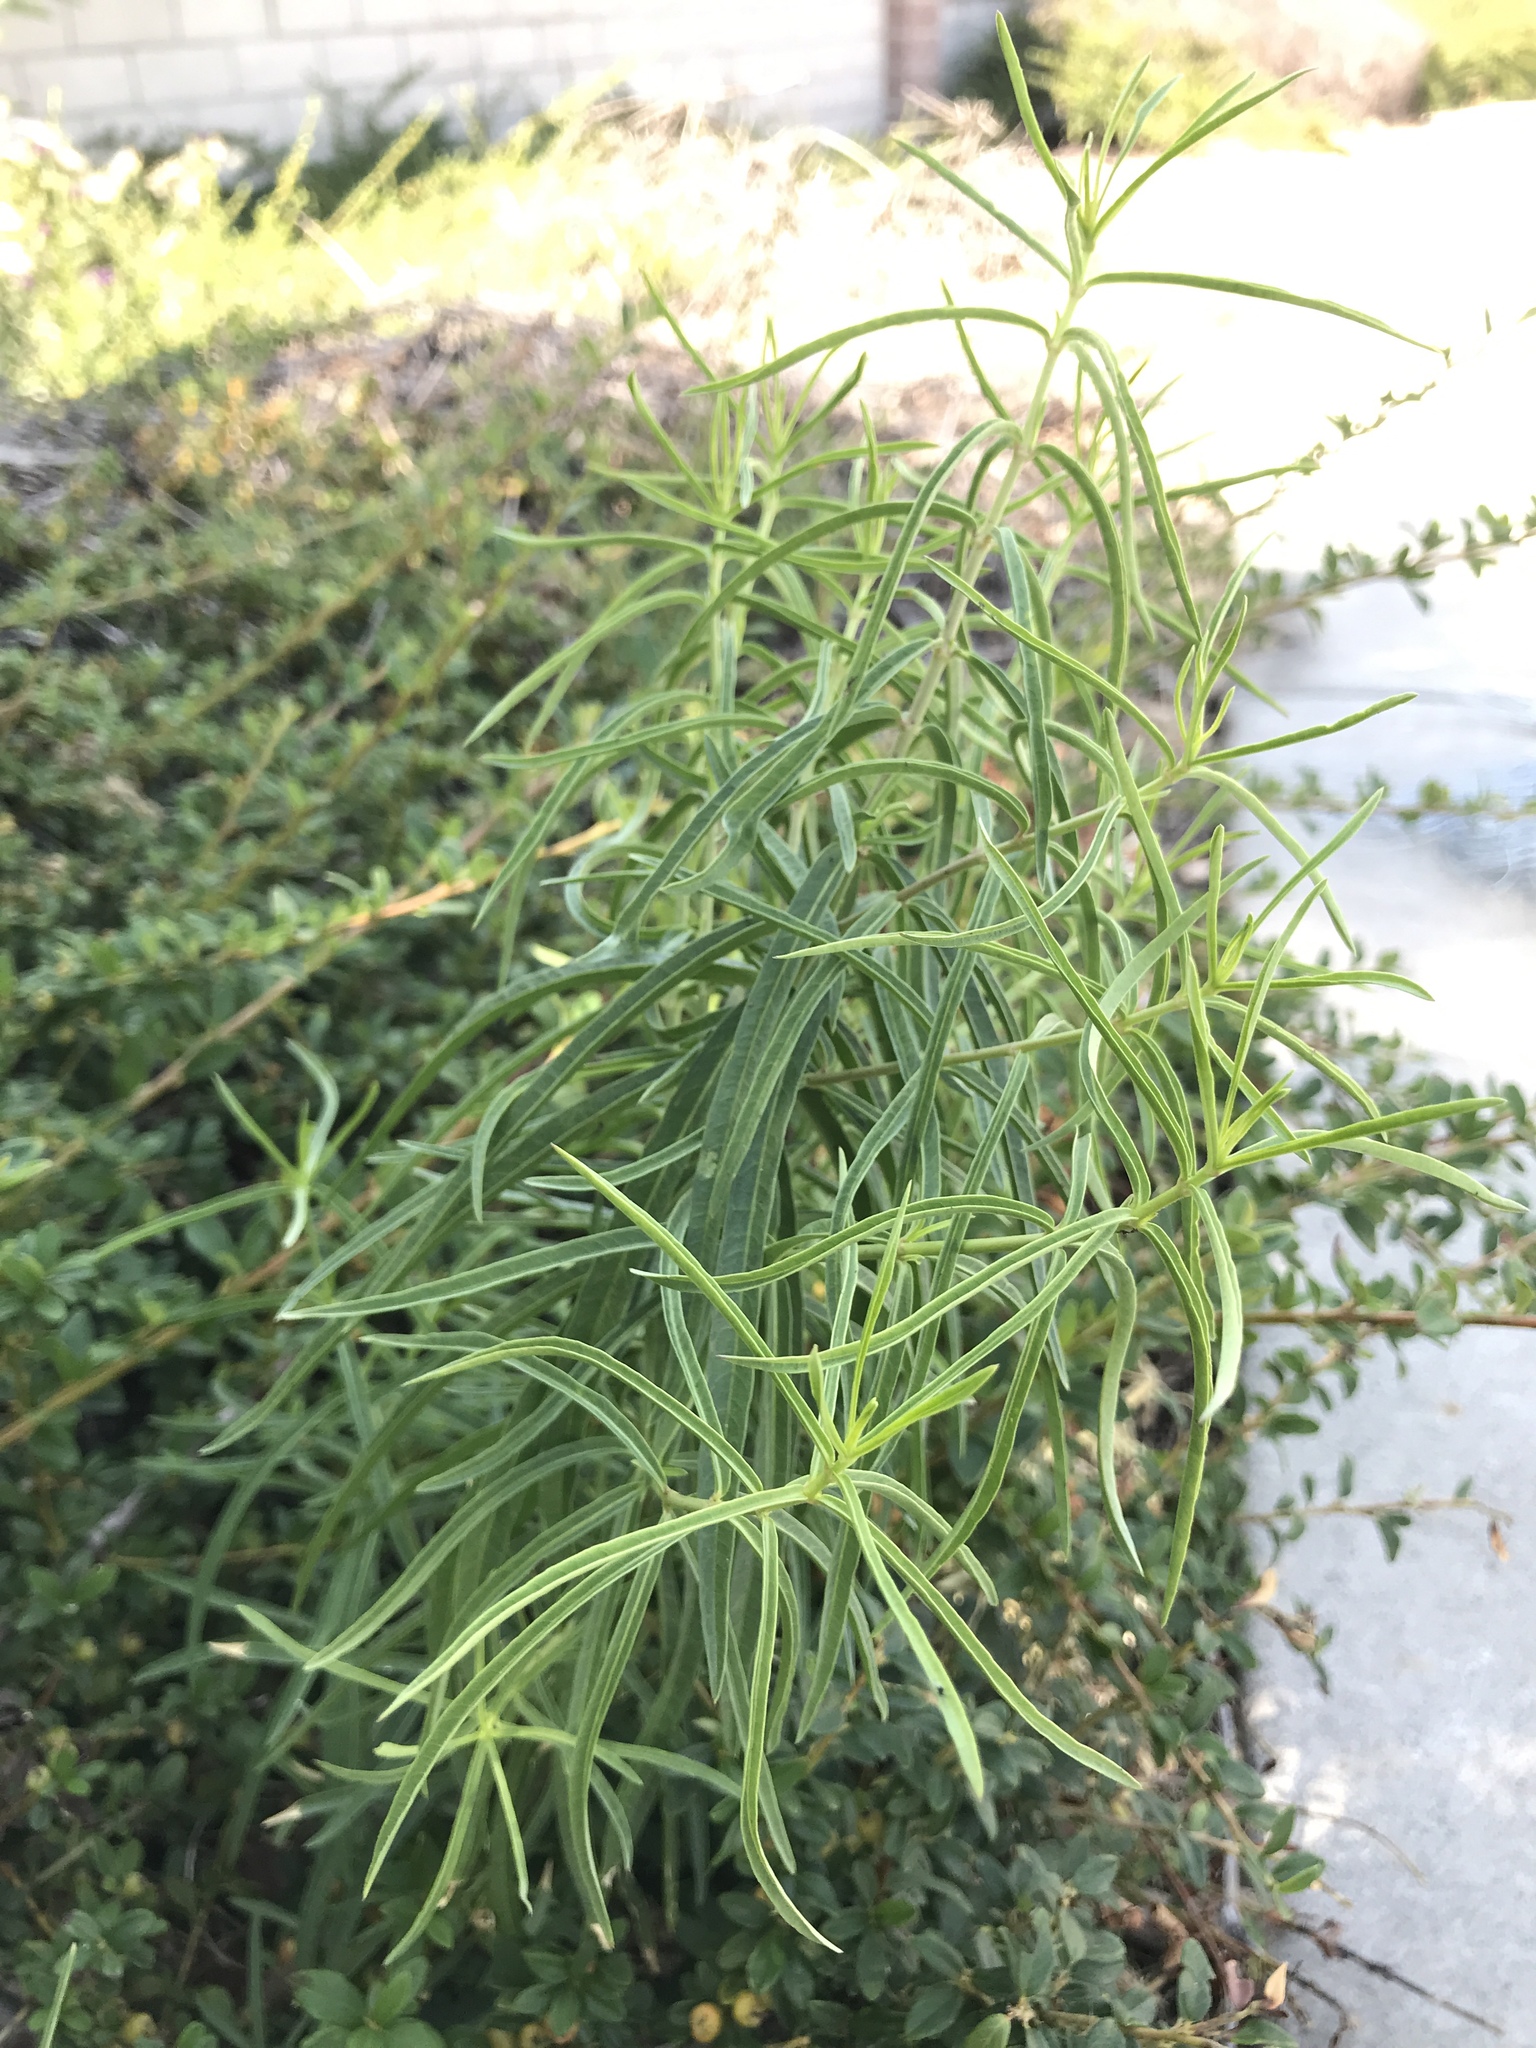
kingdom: Plantae
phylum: Tracheophyta
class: Magnoliopsida
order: Gentianales
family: Apocynaceae
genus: Asclepias
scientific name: Asclepias fascicularis
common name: Mexican milkweed
